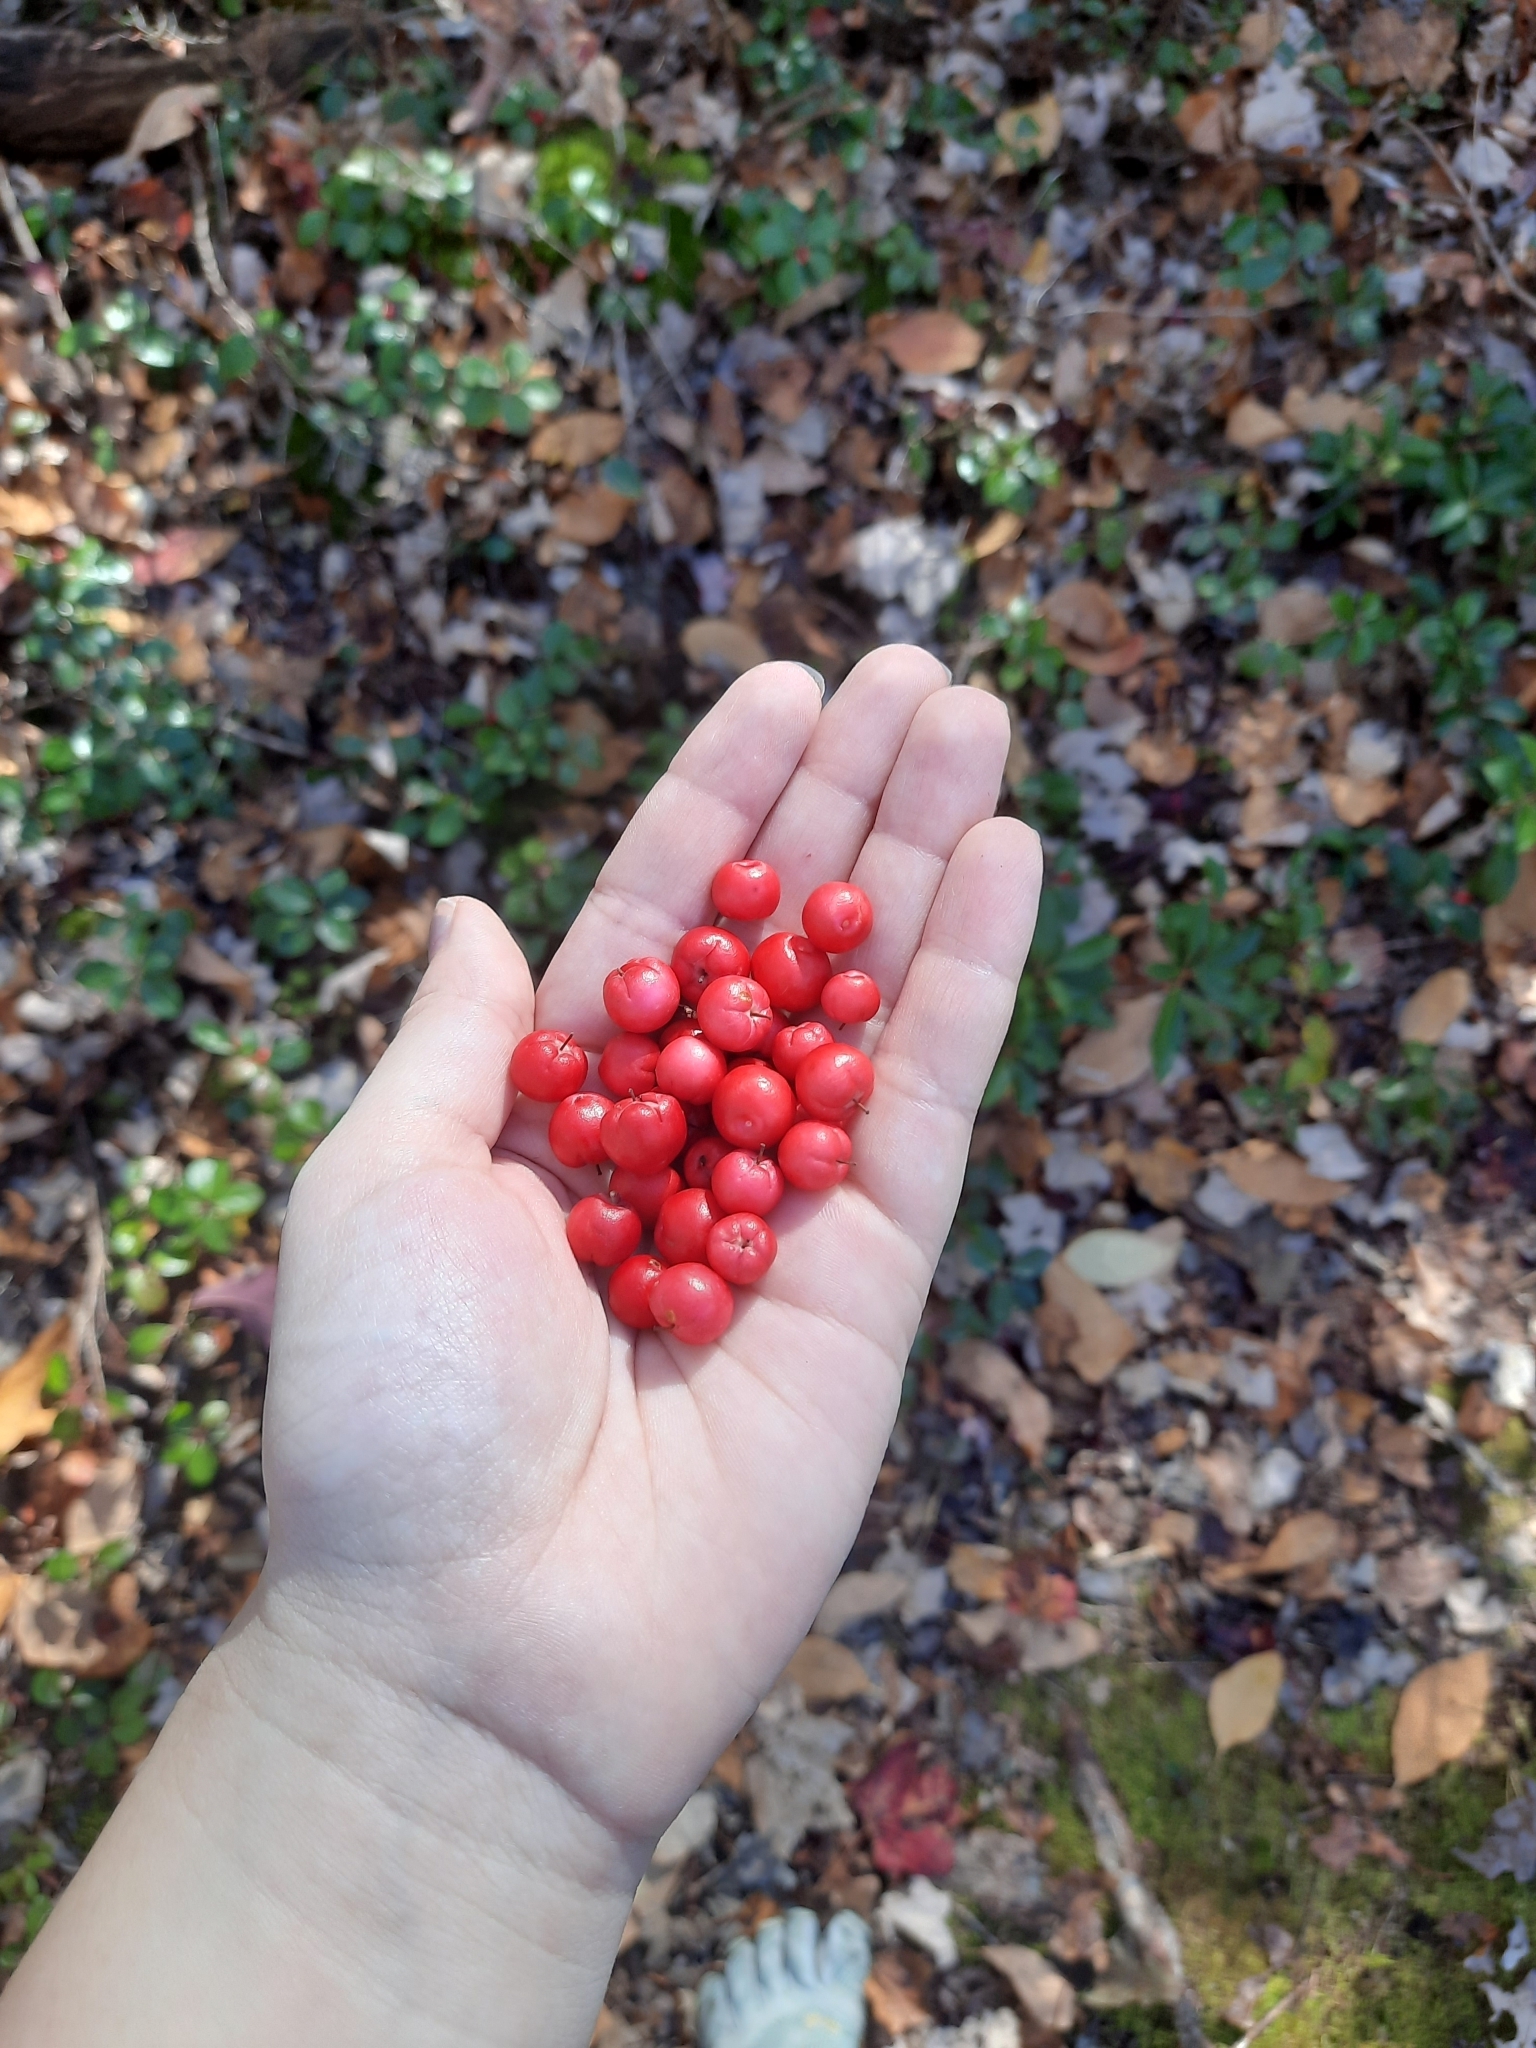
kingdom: Plantae
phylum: Tracheophyta
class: Magnoliopsida
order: Ericales
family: Ericaceae
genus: Gaultheria
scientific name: Gaultheria procumbens
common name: Checkerberry
